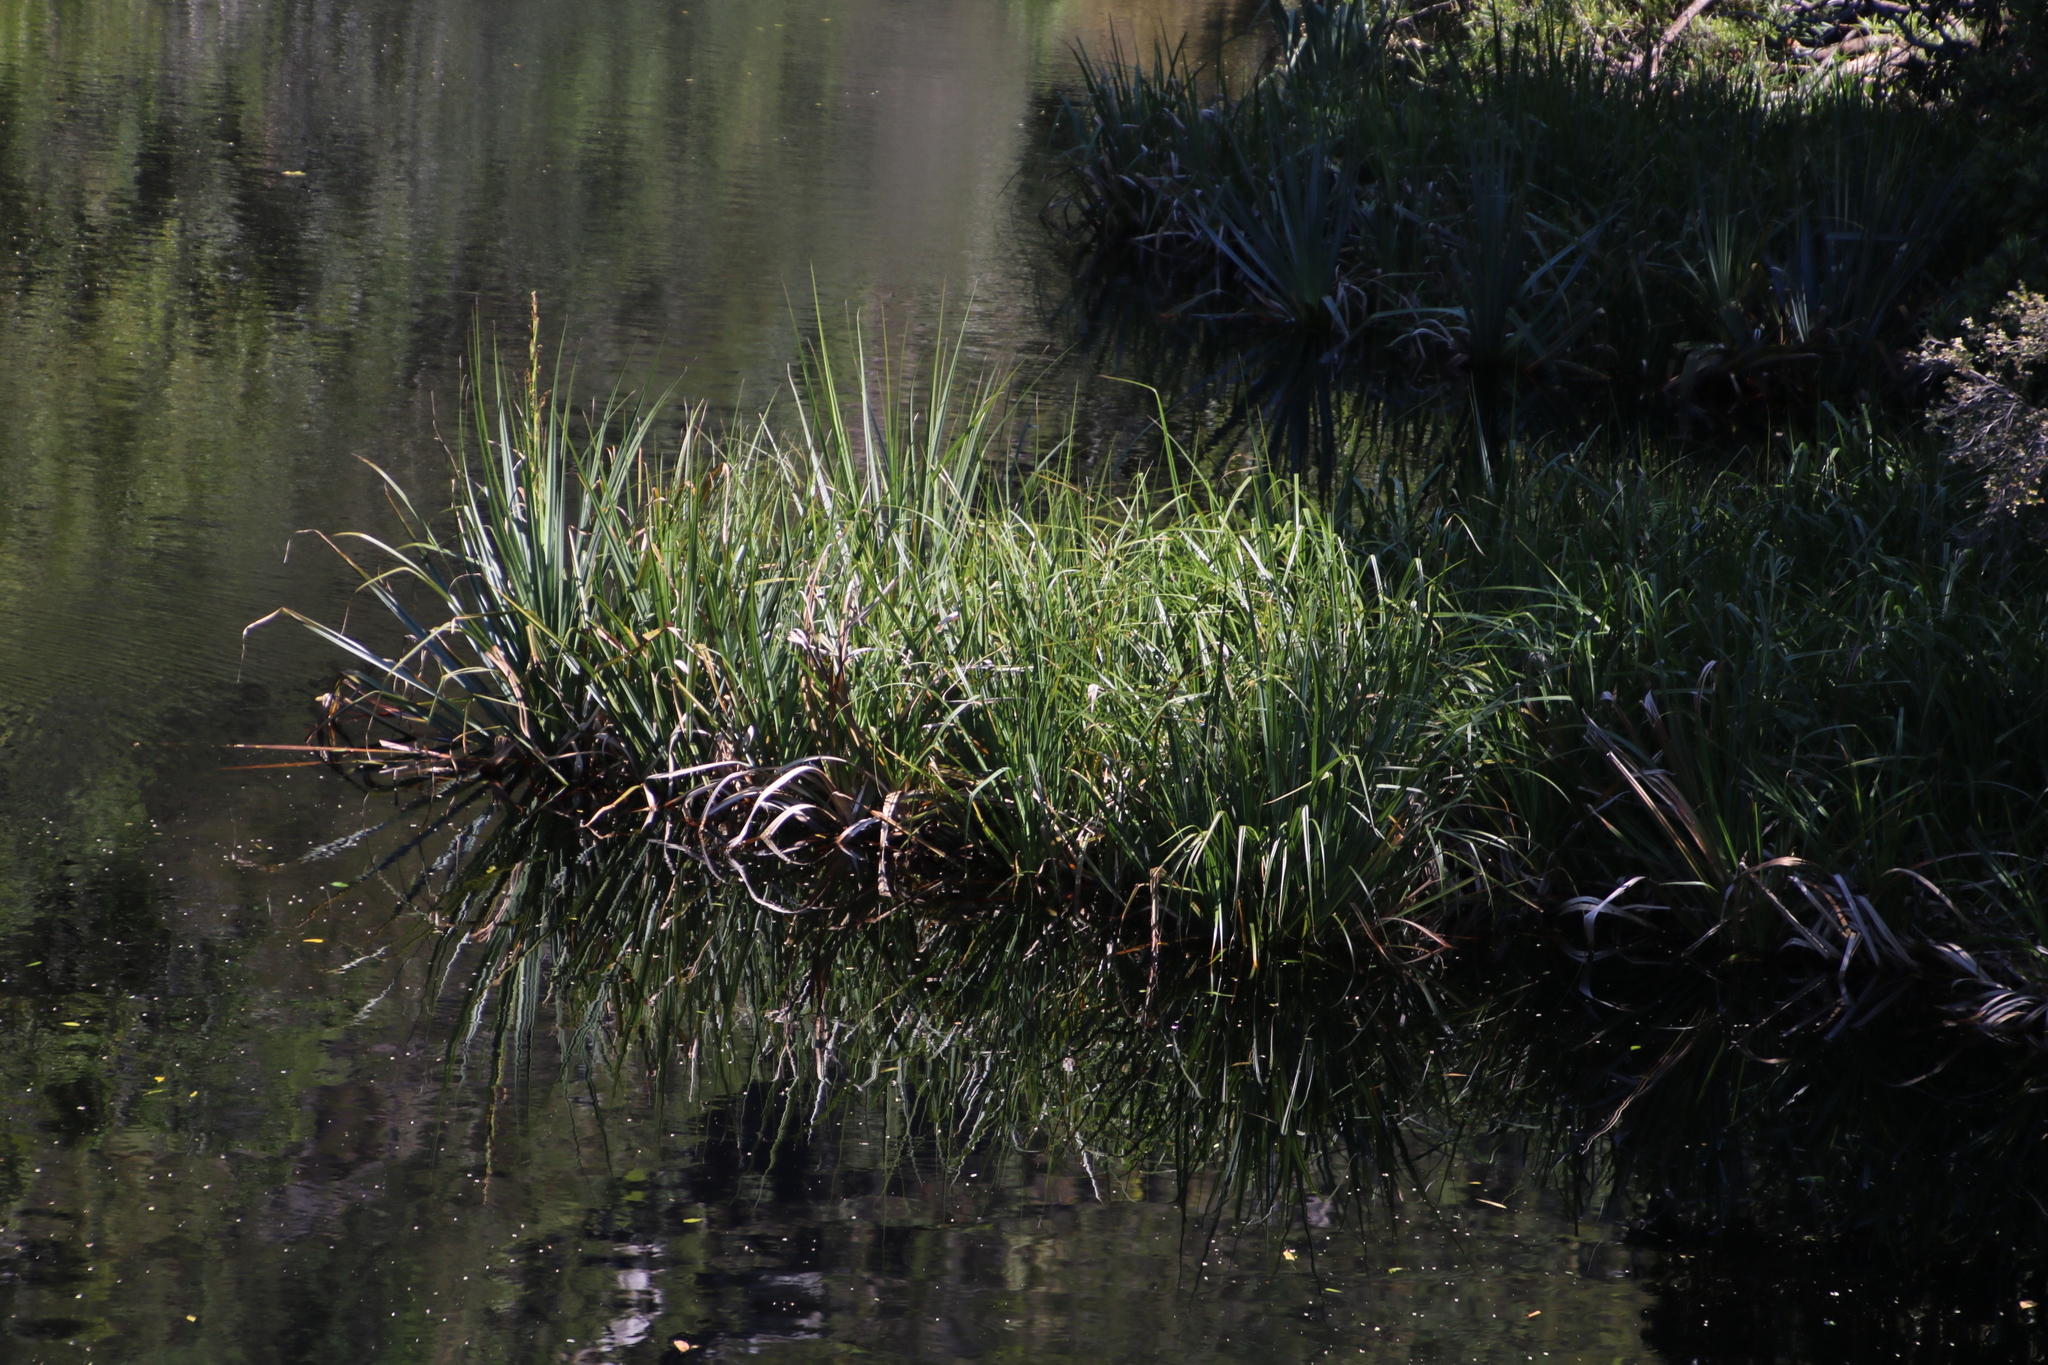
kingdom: Plantae
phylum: Tracheophyta
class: Liliopsida
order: Poales
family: Thurniaceae
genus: Prionium
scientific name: Prionium serratum
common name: Palmiet
